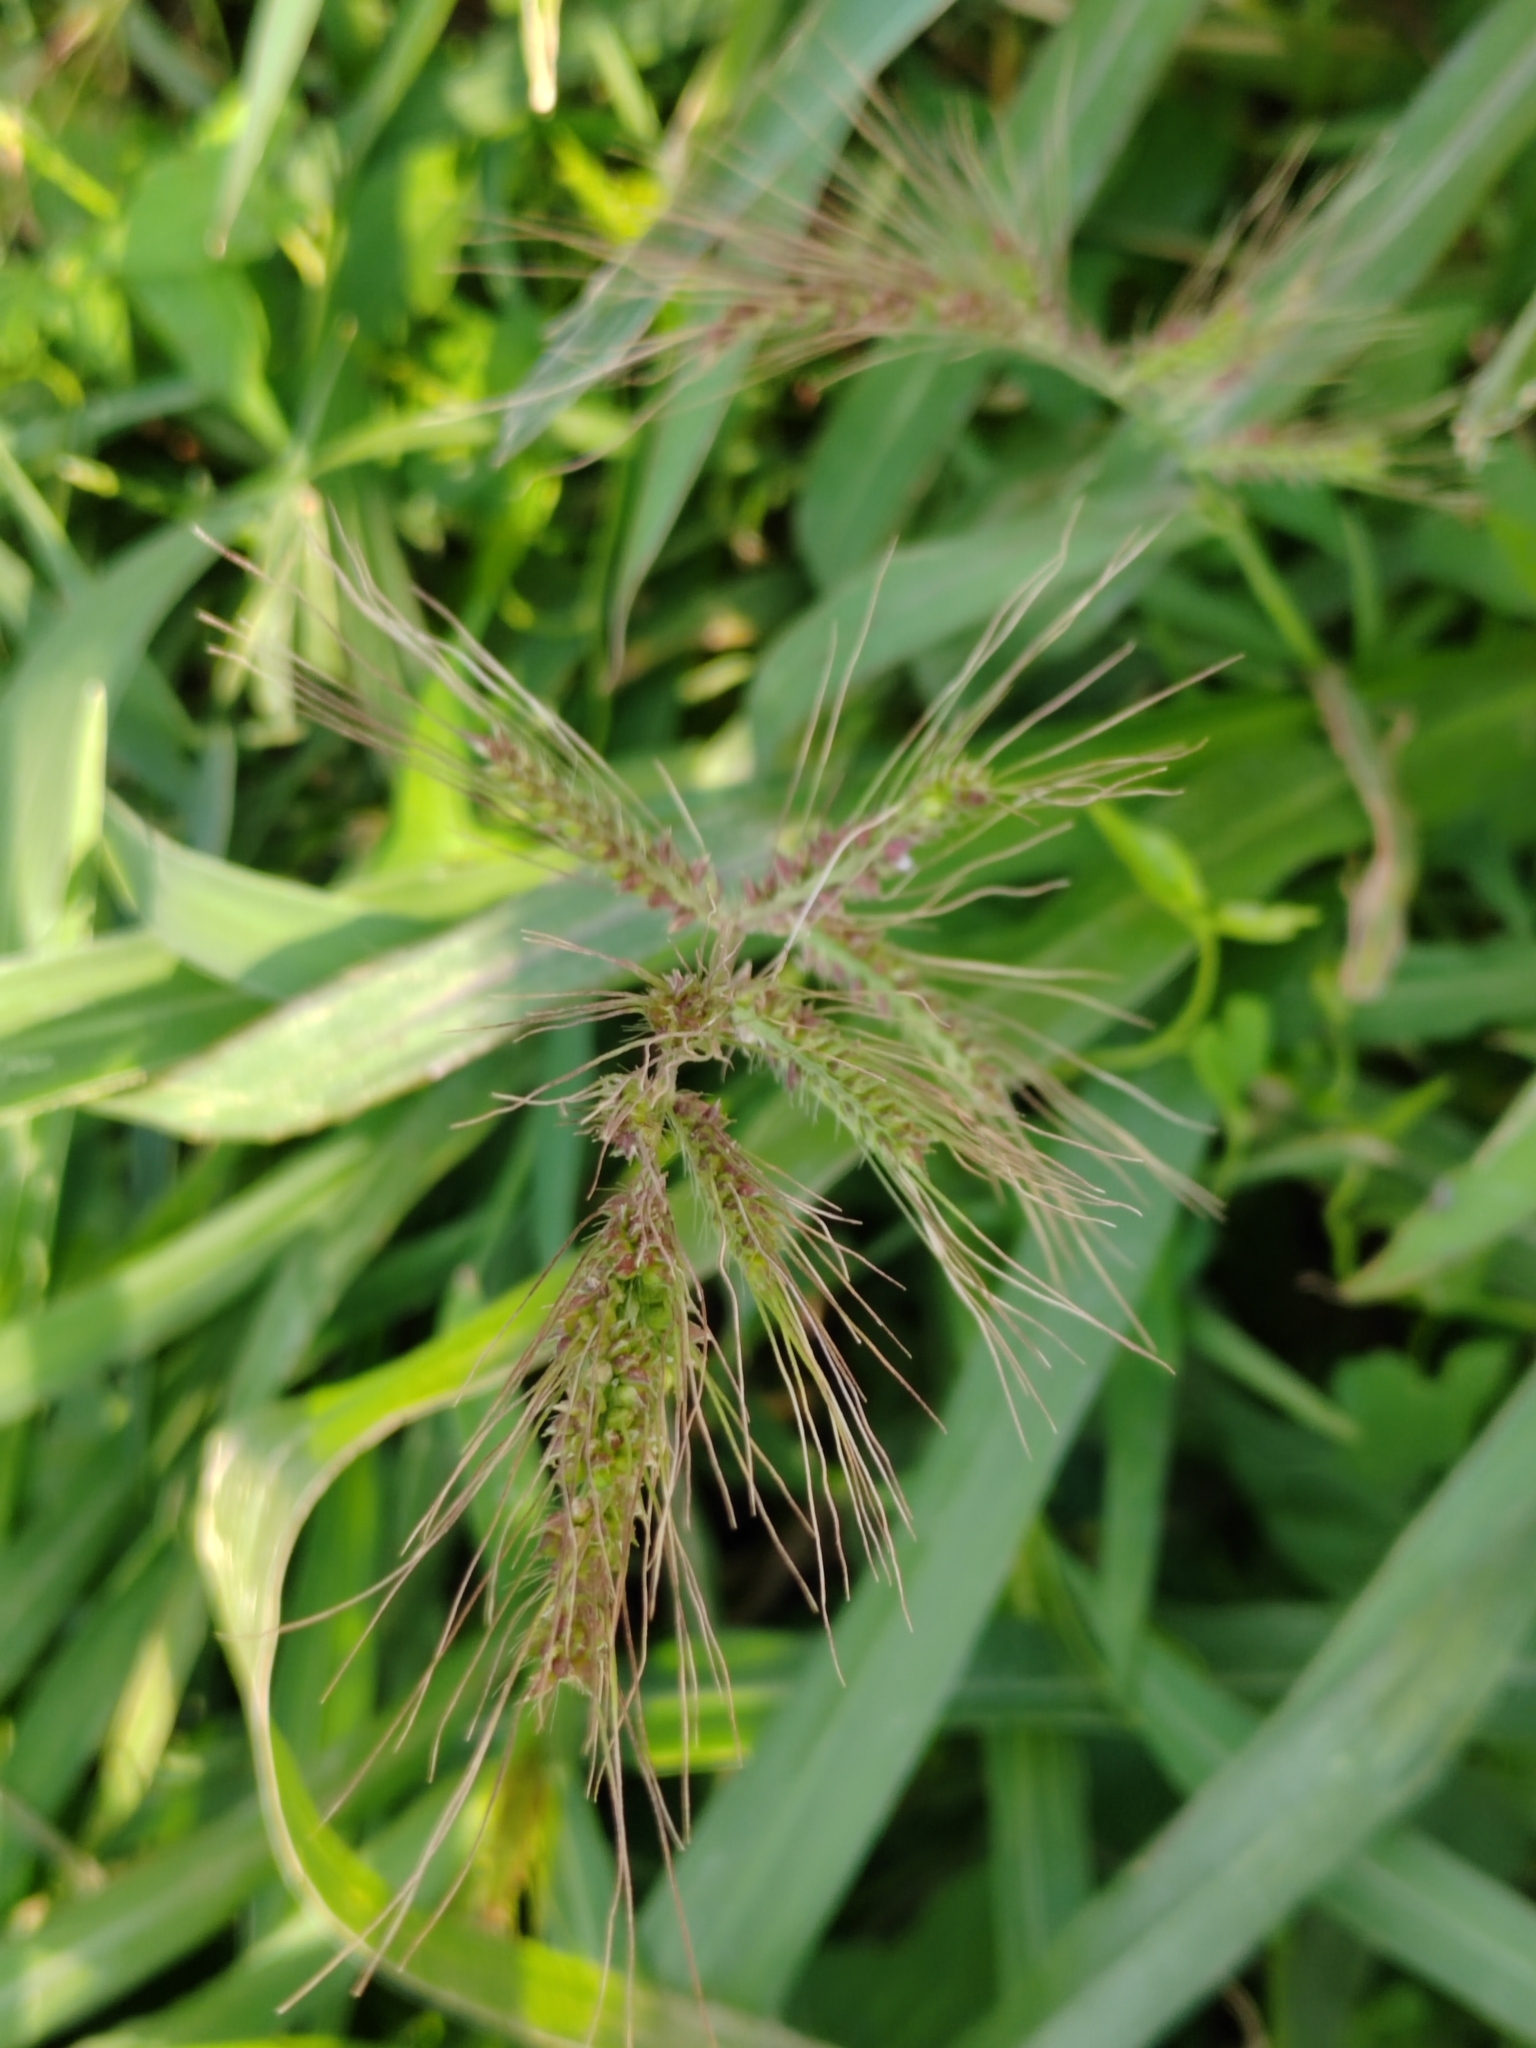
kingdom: Plantae
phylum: Tracheophyta
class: Liliopsida
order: Poales
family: Poaceae
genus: Echinochloa
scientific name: Echinochloa crus-galli
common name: Cockspur
